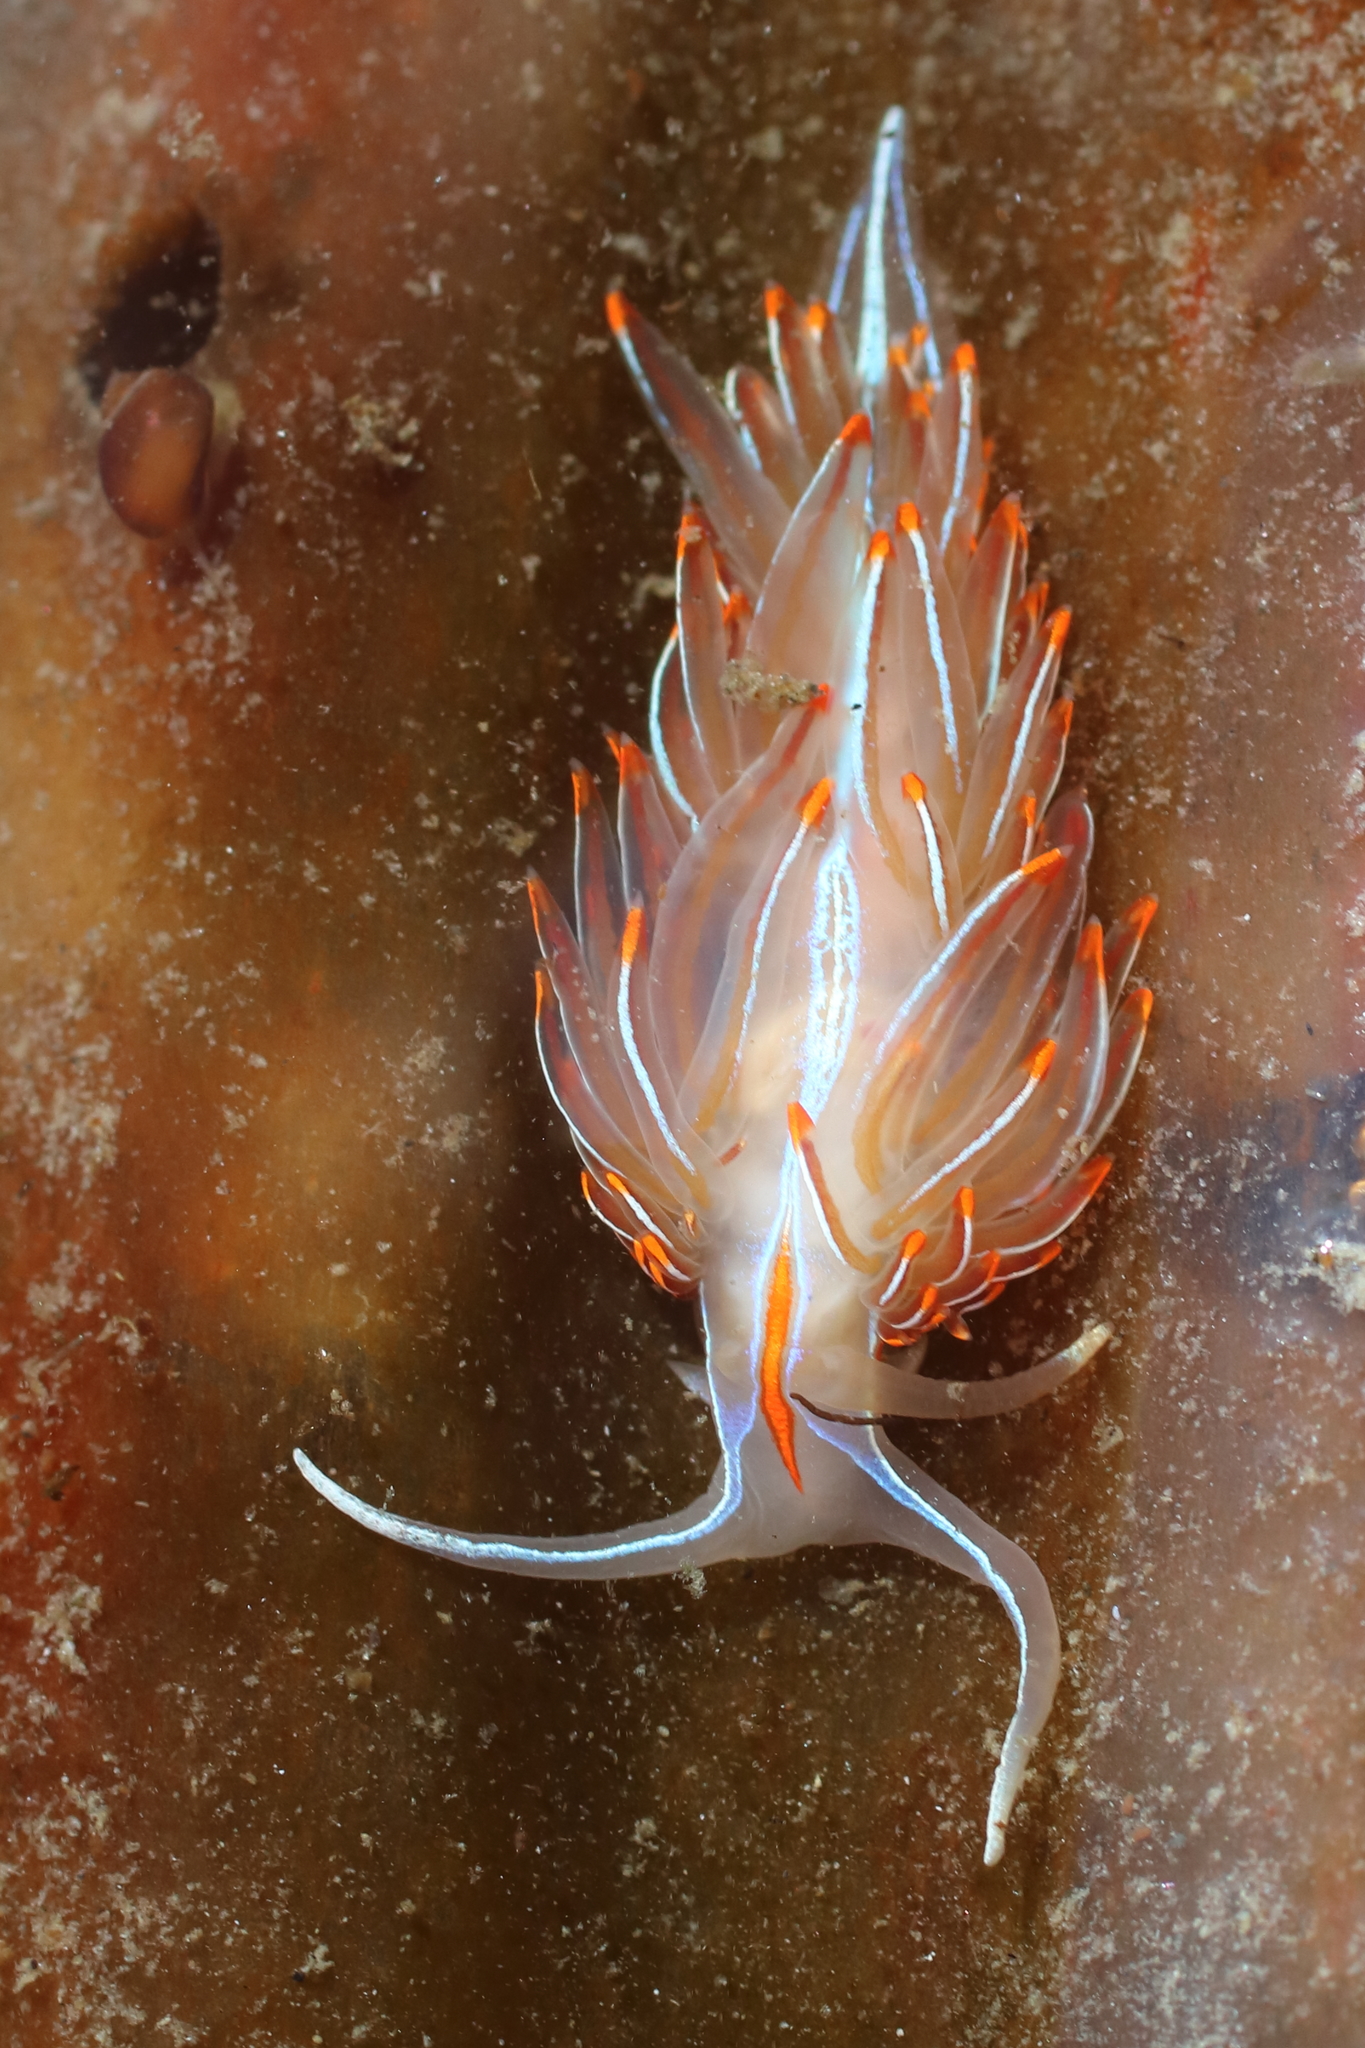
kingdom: Animalia
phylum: Mollusca
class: Gastropoda
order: Nudibranchia
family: Myrrhinidae
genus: Hermissenda
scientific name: Hermissenda crassicornis
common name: Hermissenda
